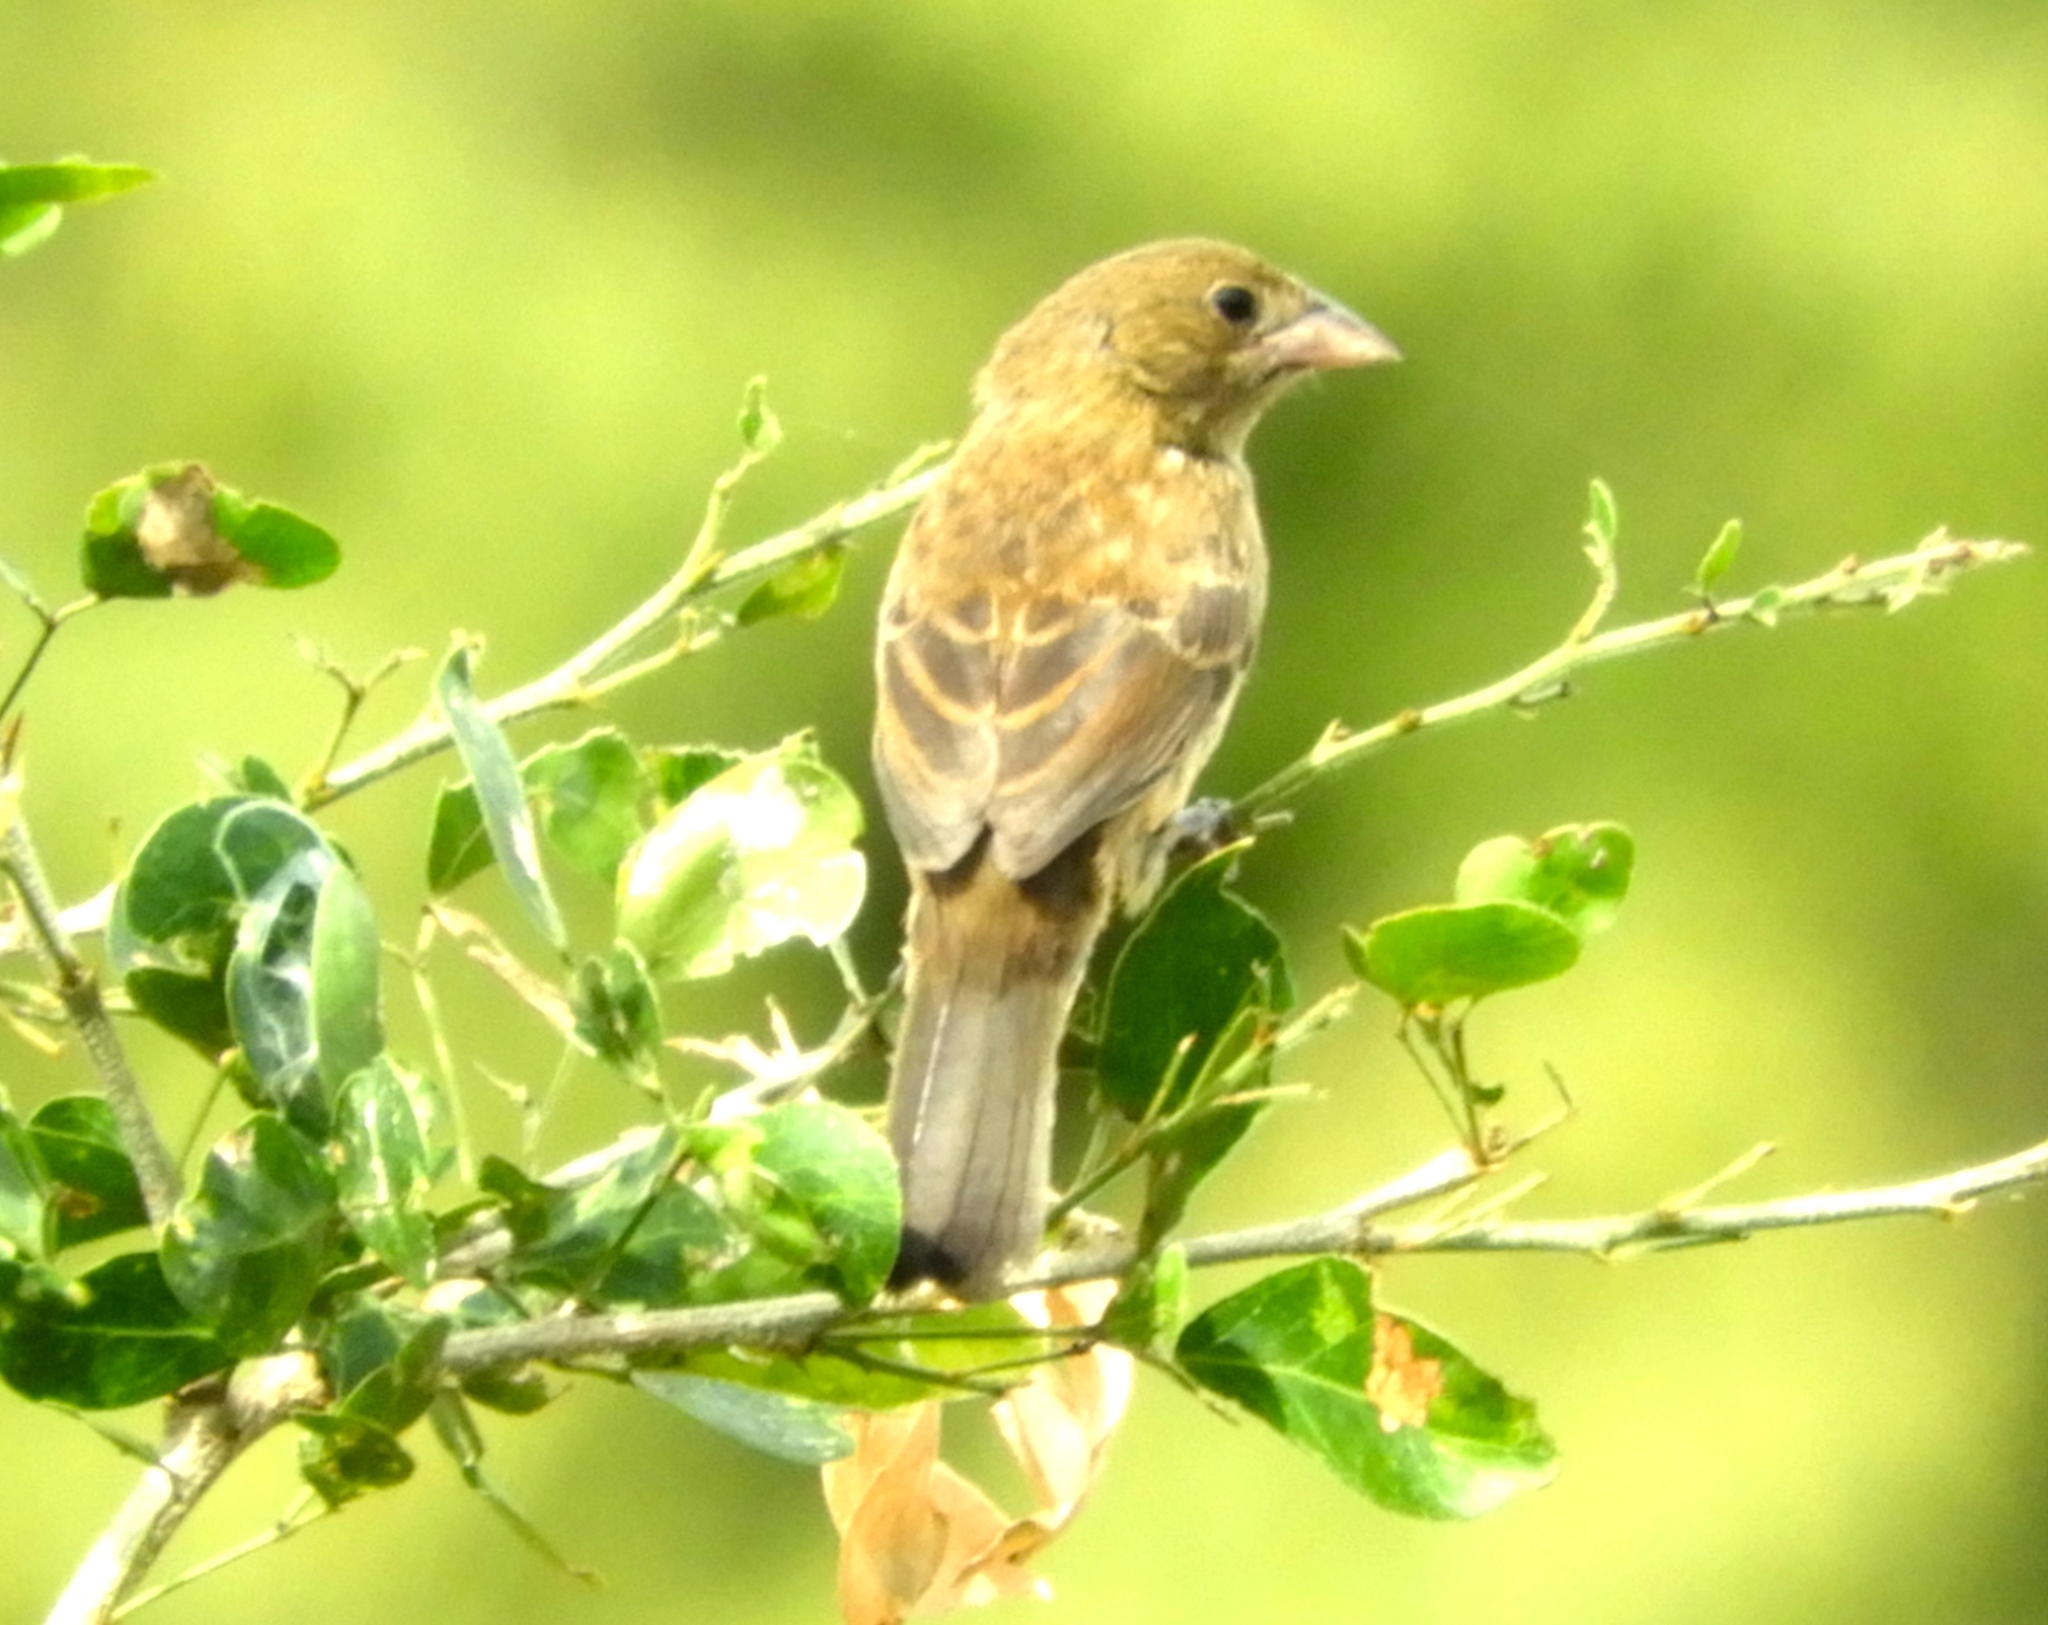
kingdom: Animalia
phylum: Chordata
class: Aves
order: Passeriformes
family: Thraupidae
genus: Volatinia
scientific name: Volatinia jacarina
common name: Blue-black grassquit
